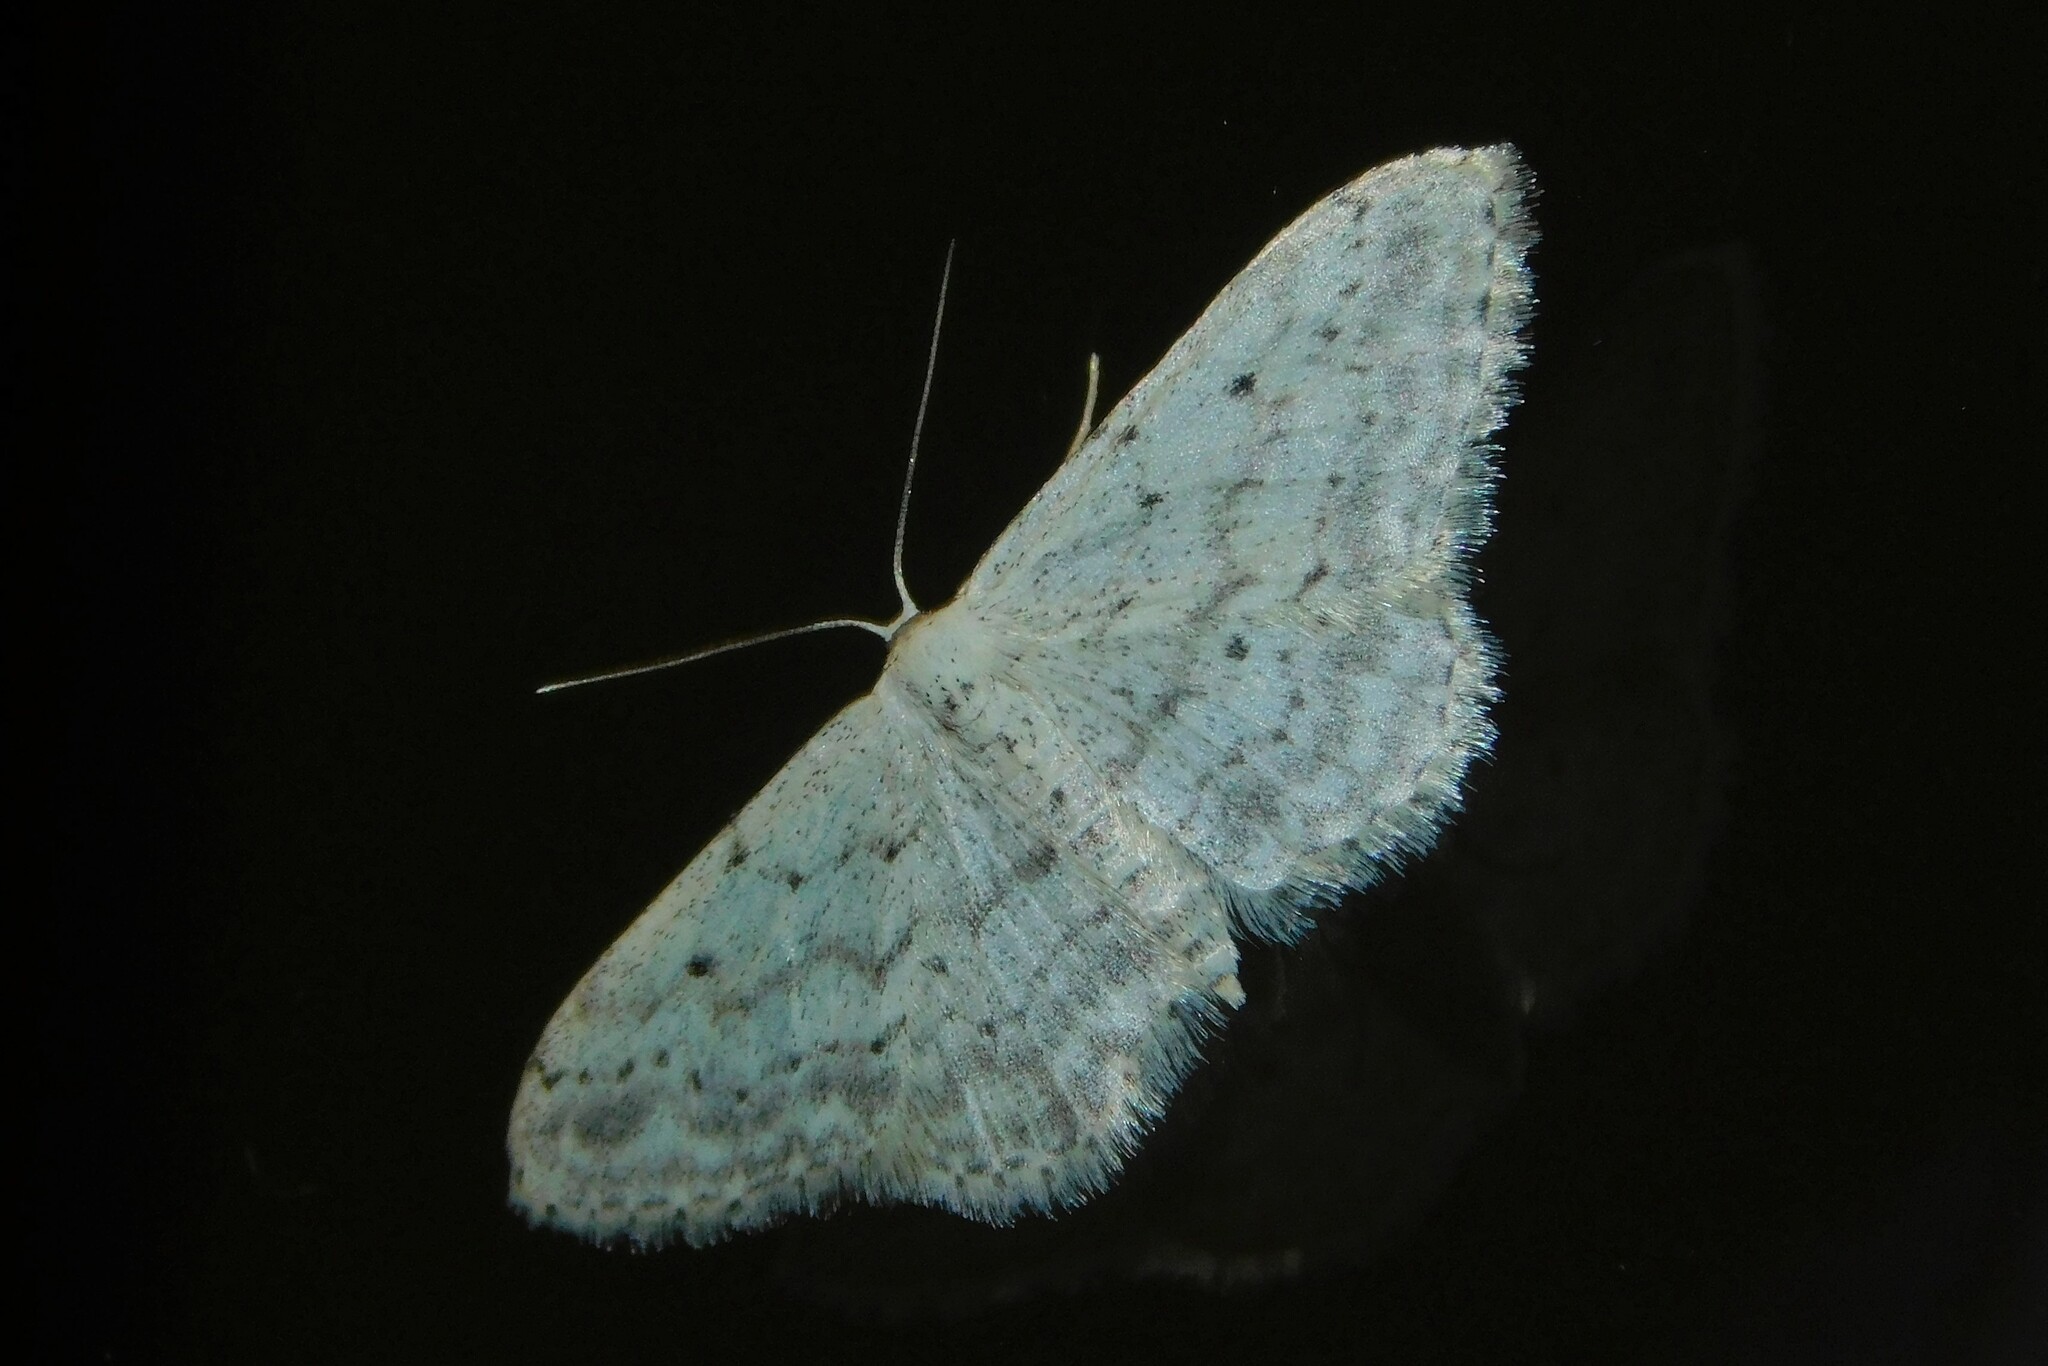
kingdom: Animalia
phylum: Arthropoda
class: Insecta
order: Lepidoptera
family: Geometridae
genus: Idaea
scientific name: Idaea seriata
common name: Small dusty wave
